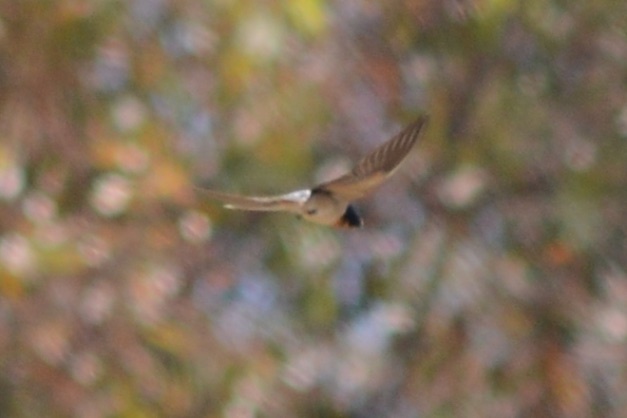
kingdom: Animalia
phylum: Chordata
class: Aves
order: Passeriformes
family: Hirundinidae
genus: Hirundo
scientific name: Hirundo rustica
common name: Barn swallow
